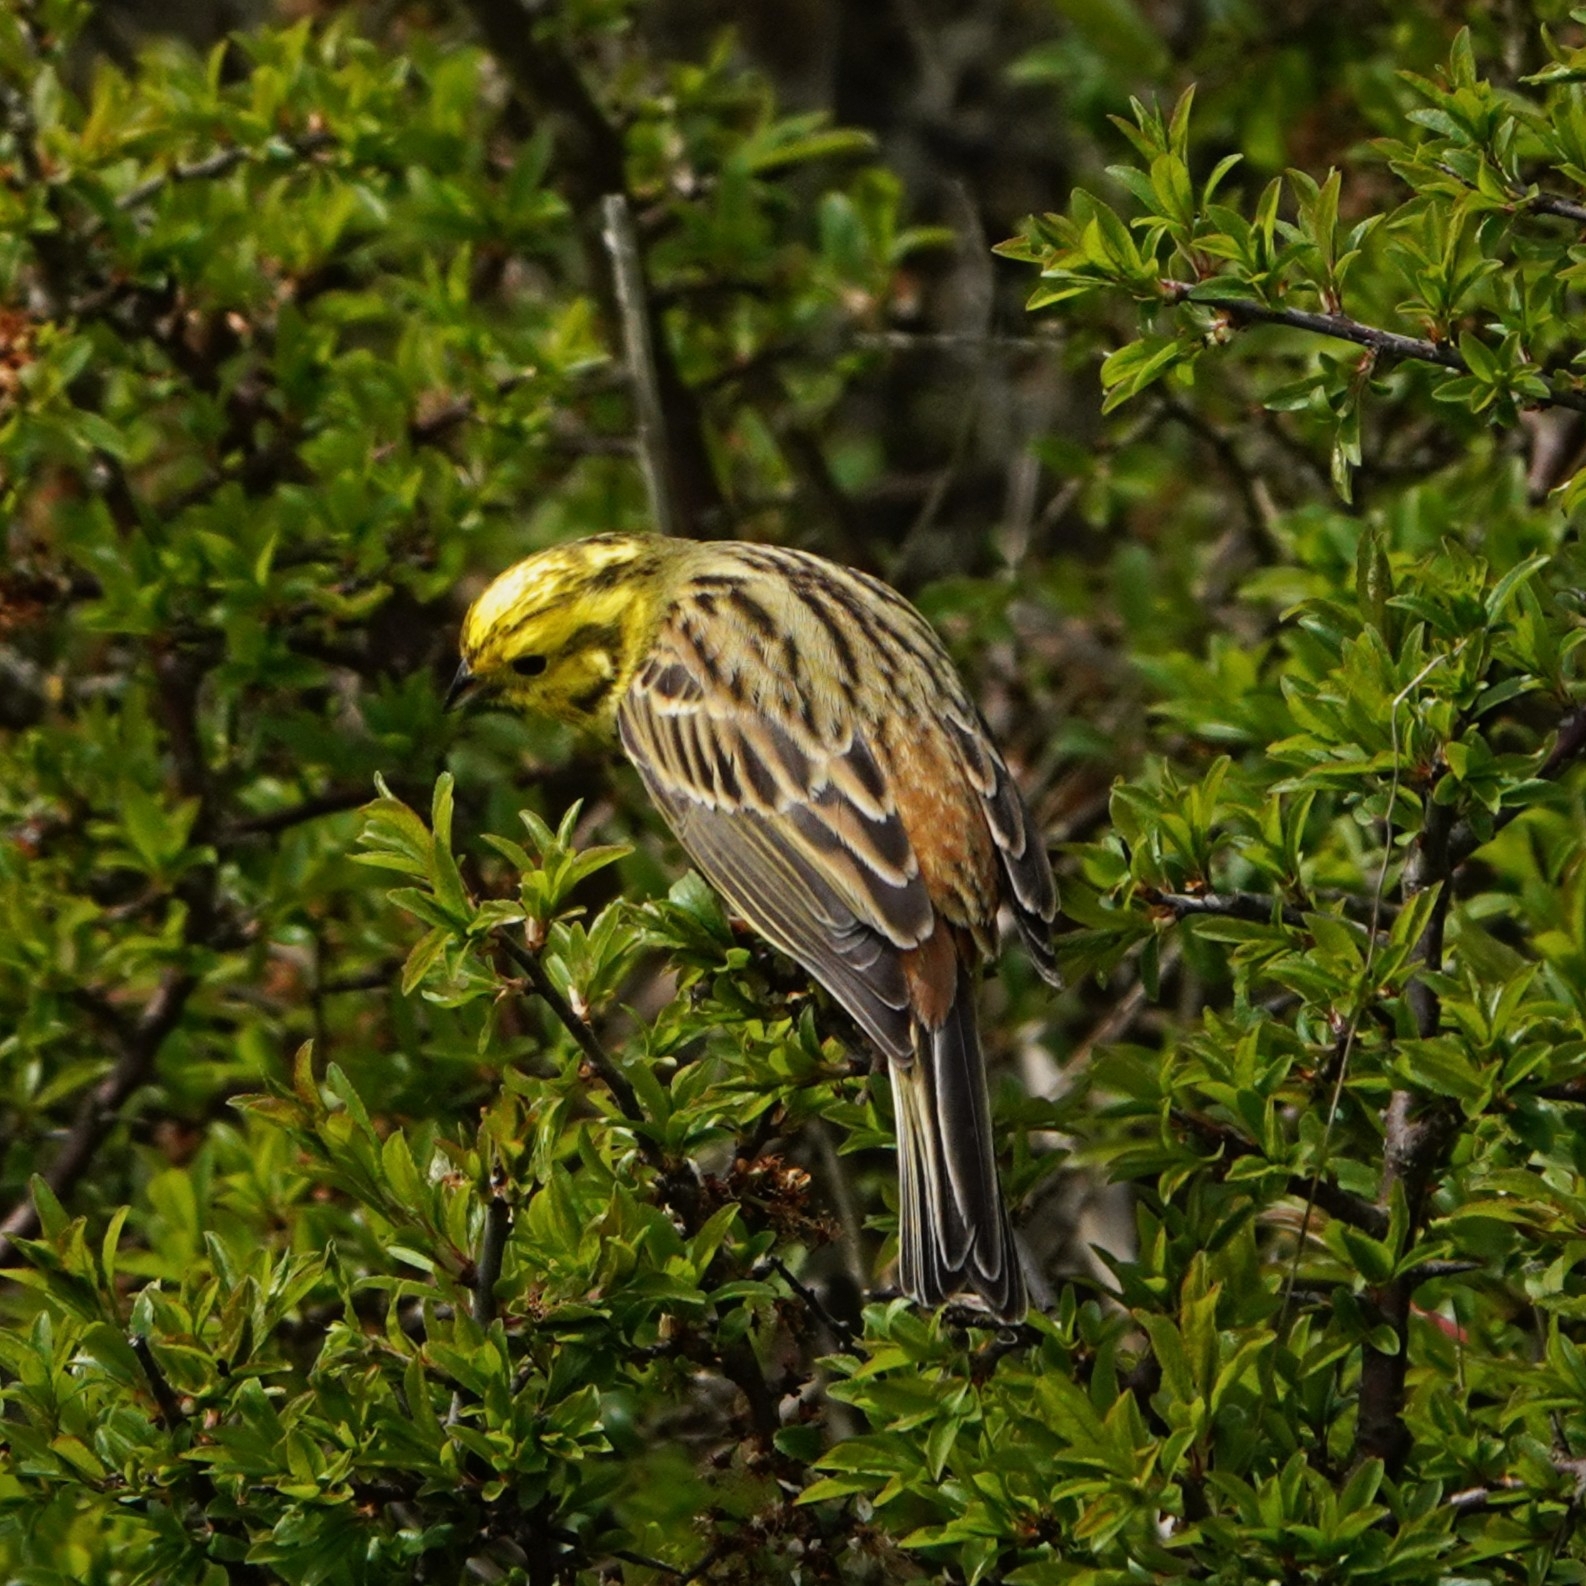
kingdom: Animalia
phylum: Chordata
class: Aves
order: Passeriformes
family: Emberizidae
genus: Emberiza
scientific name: Emberiza citrinella
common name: Yellowhammer
